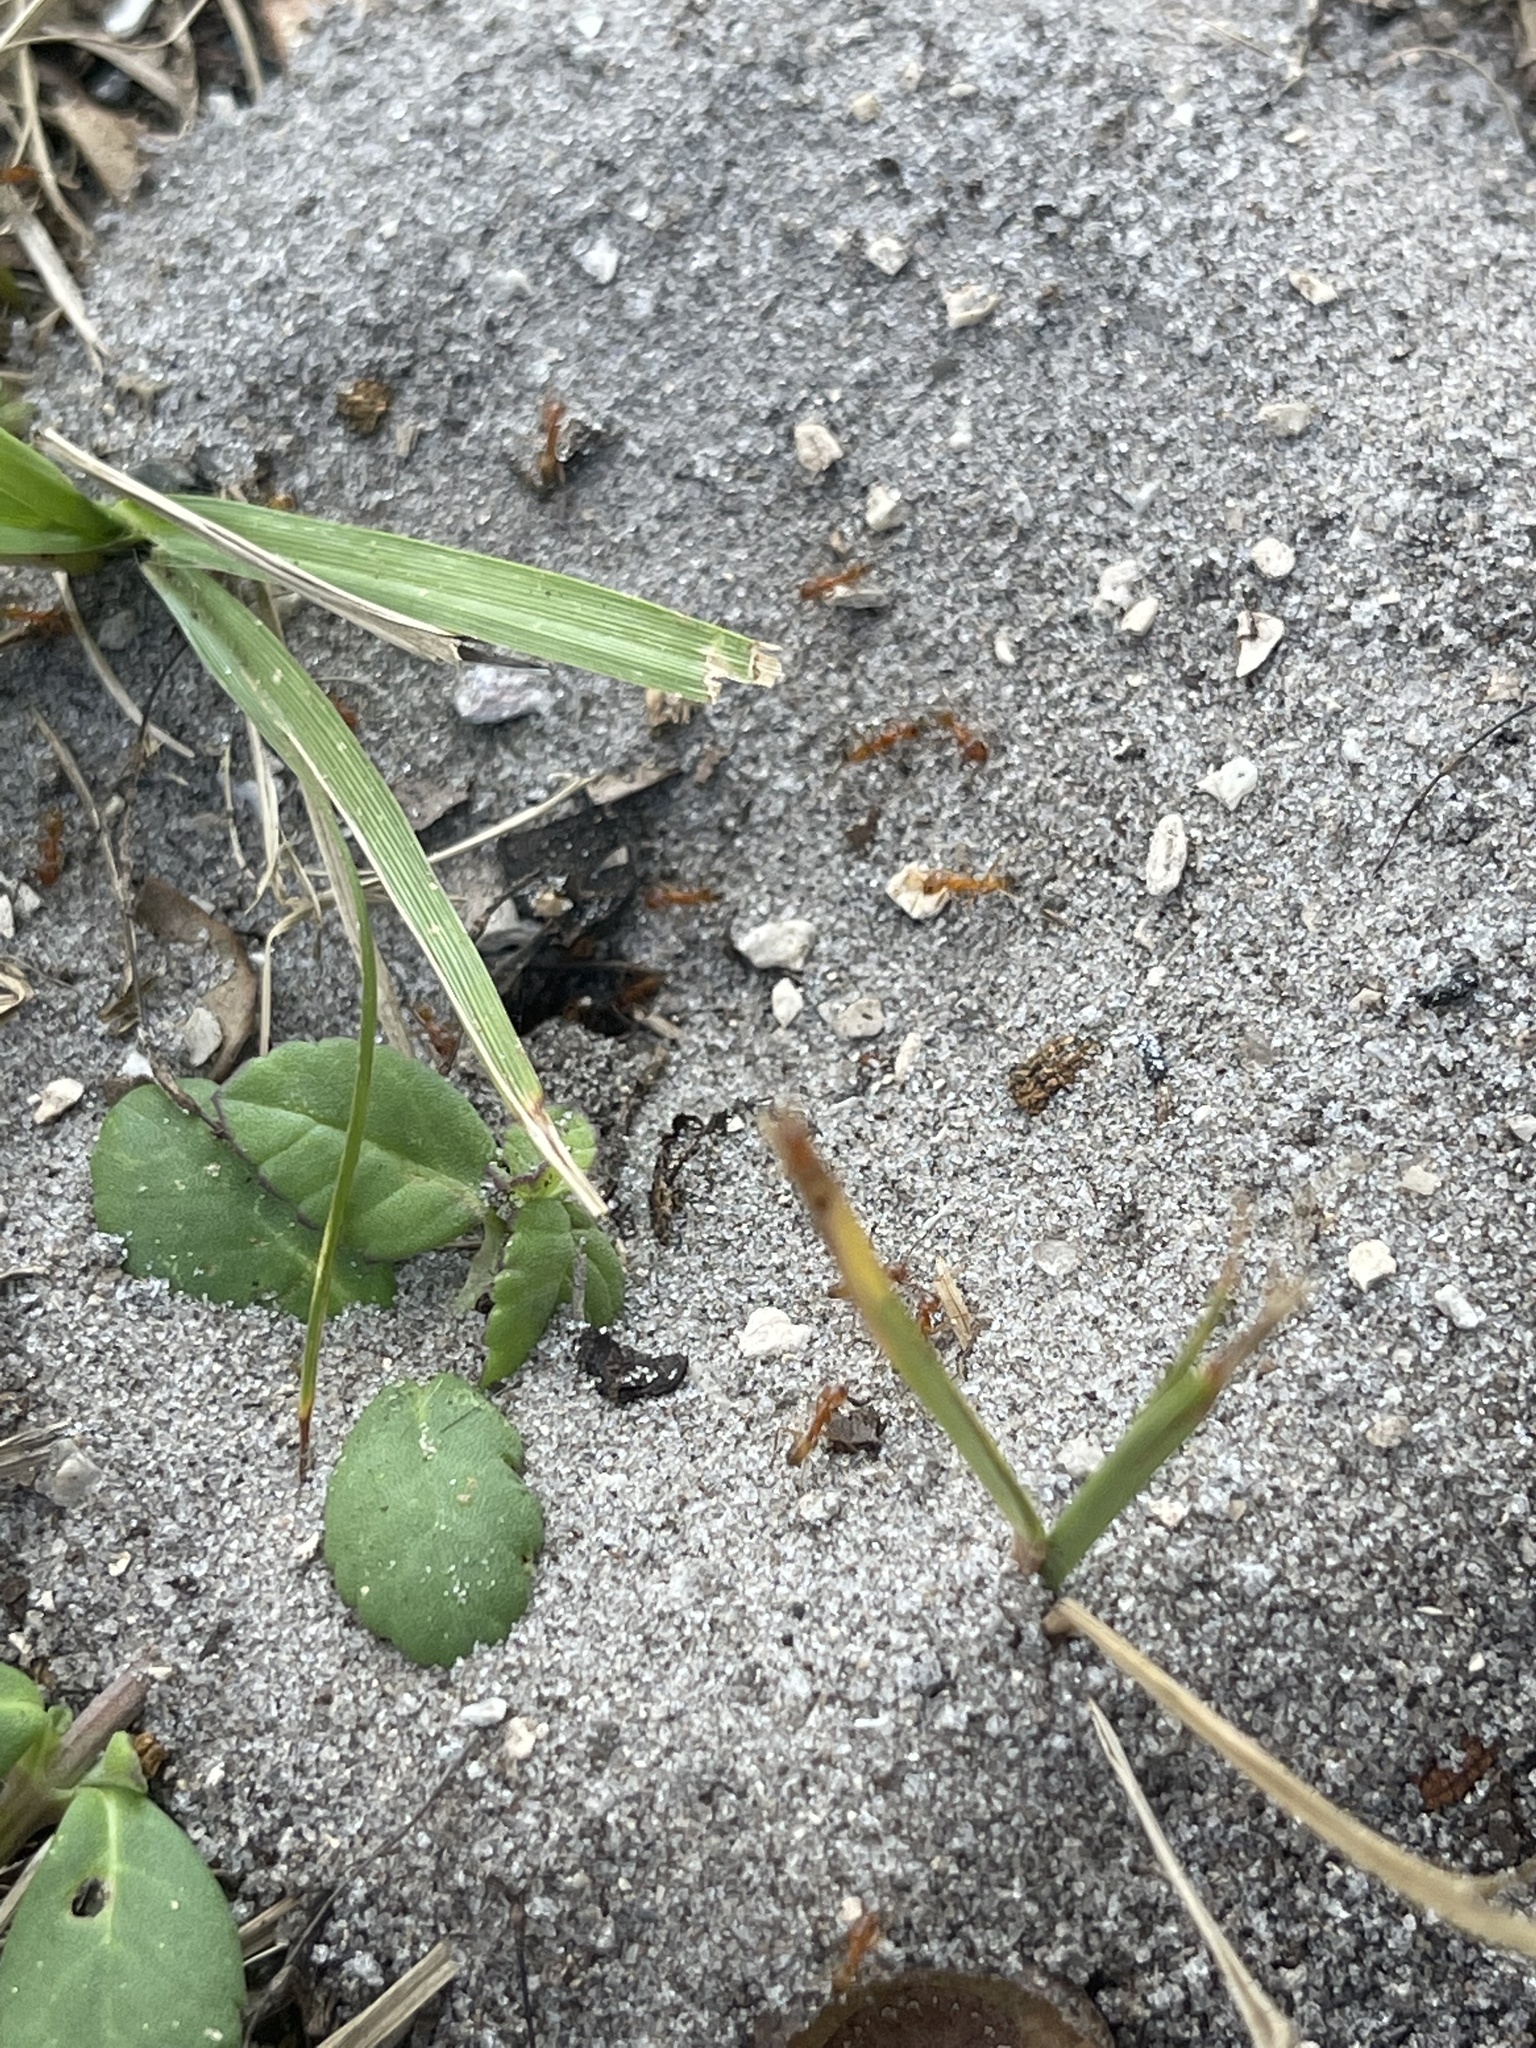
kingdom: Animalia
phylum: Arthropoda
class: Insecta
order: Hymenoptera
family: Formicidae
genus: Dorymyrmex
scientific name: Dorymyrmex bureni
